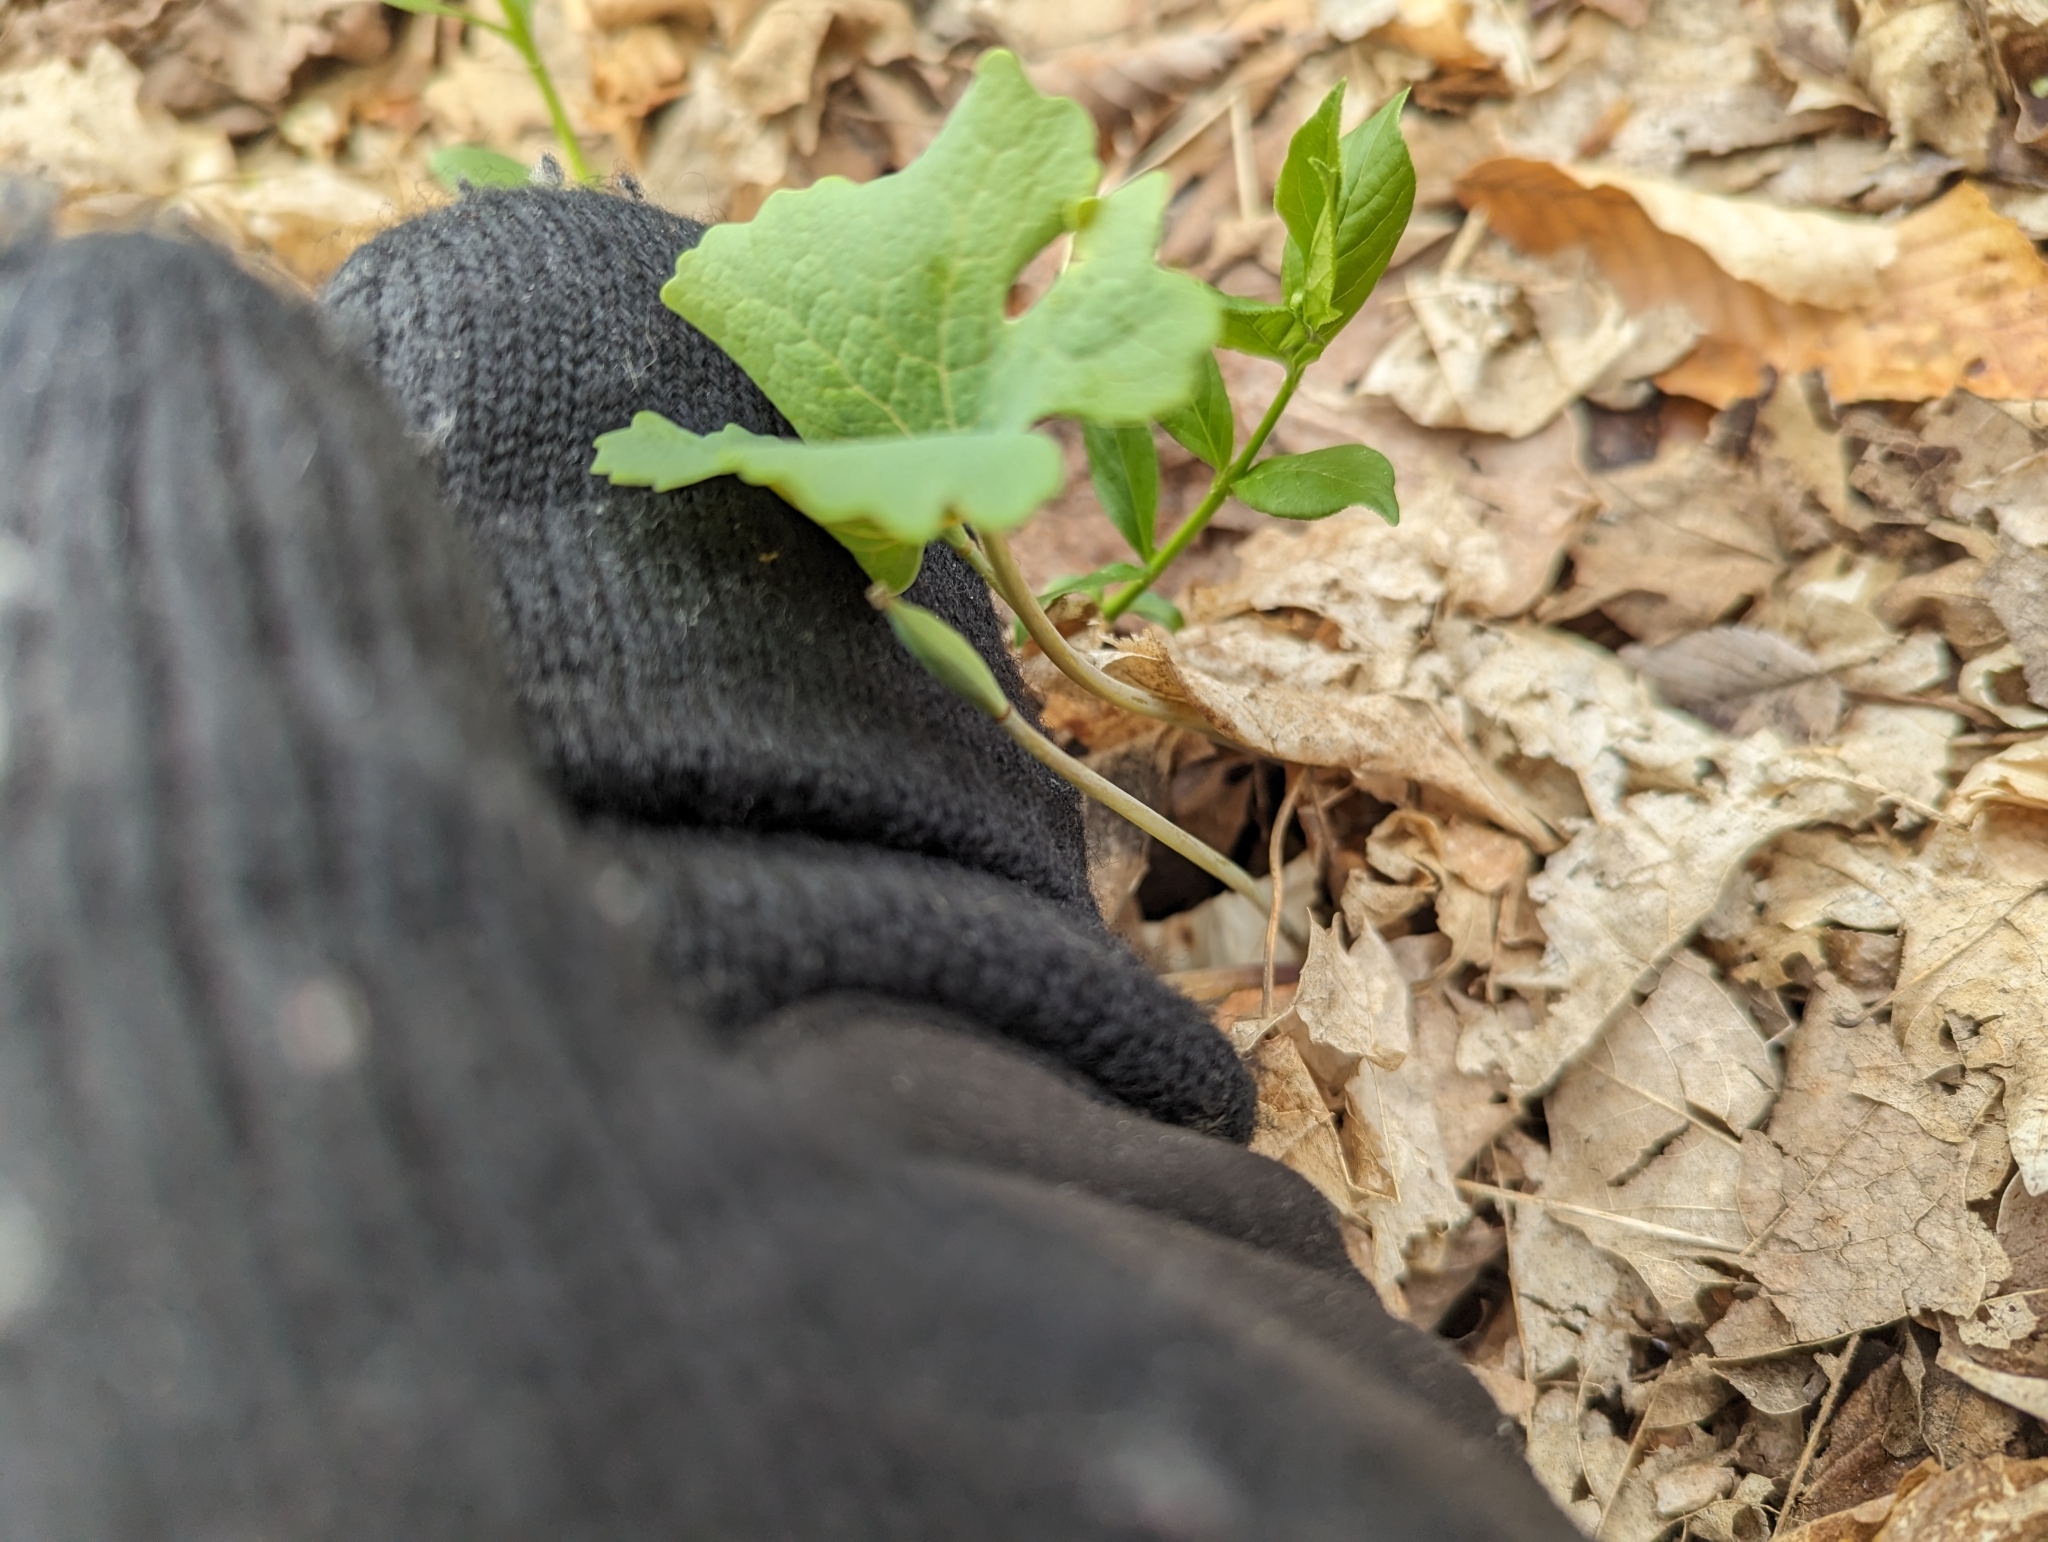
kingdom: Plantae
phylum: Tracheophyta
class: Magnoliopsida
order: Ranunculales
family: Papaveraceae
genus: Sanguinaria
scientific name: Sanguinaria canadensis
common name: Bloodroot
